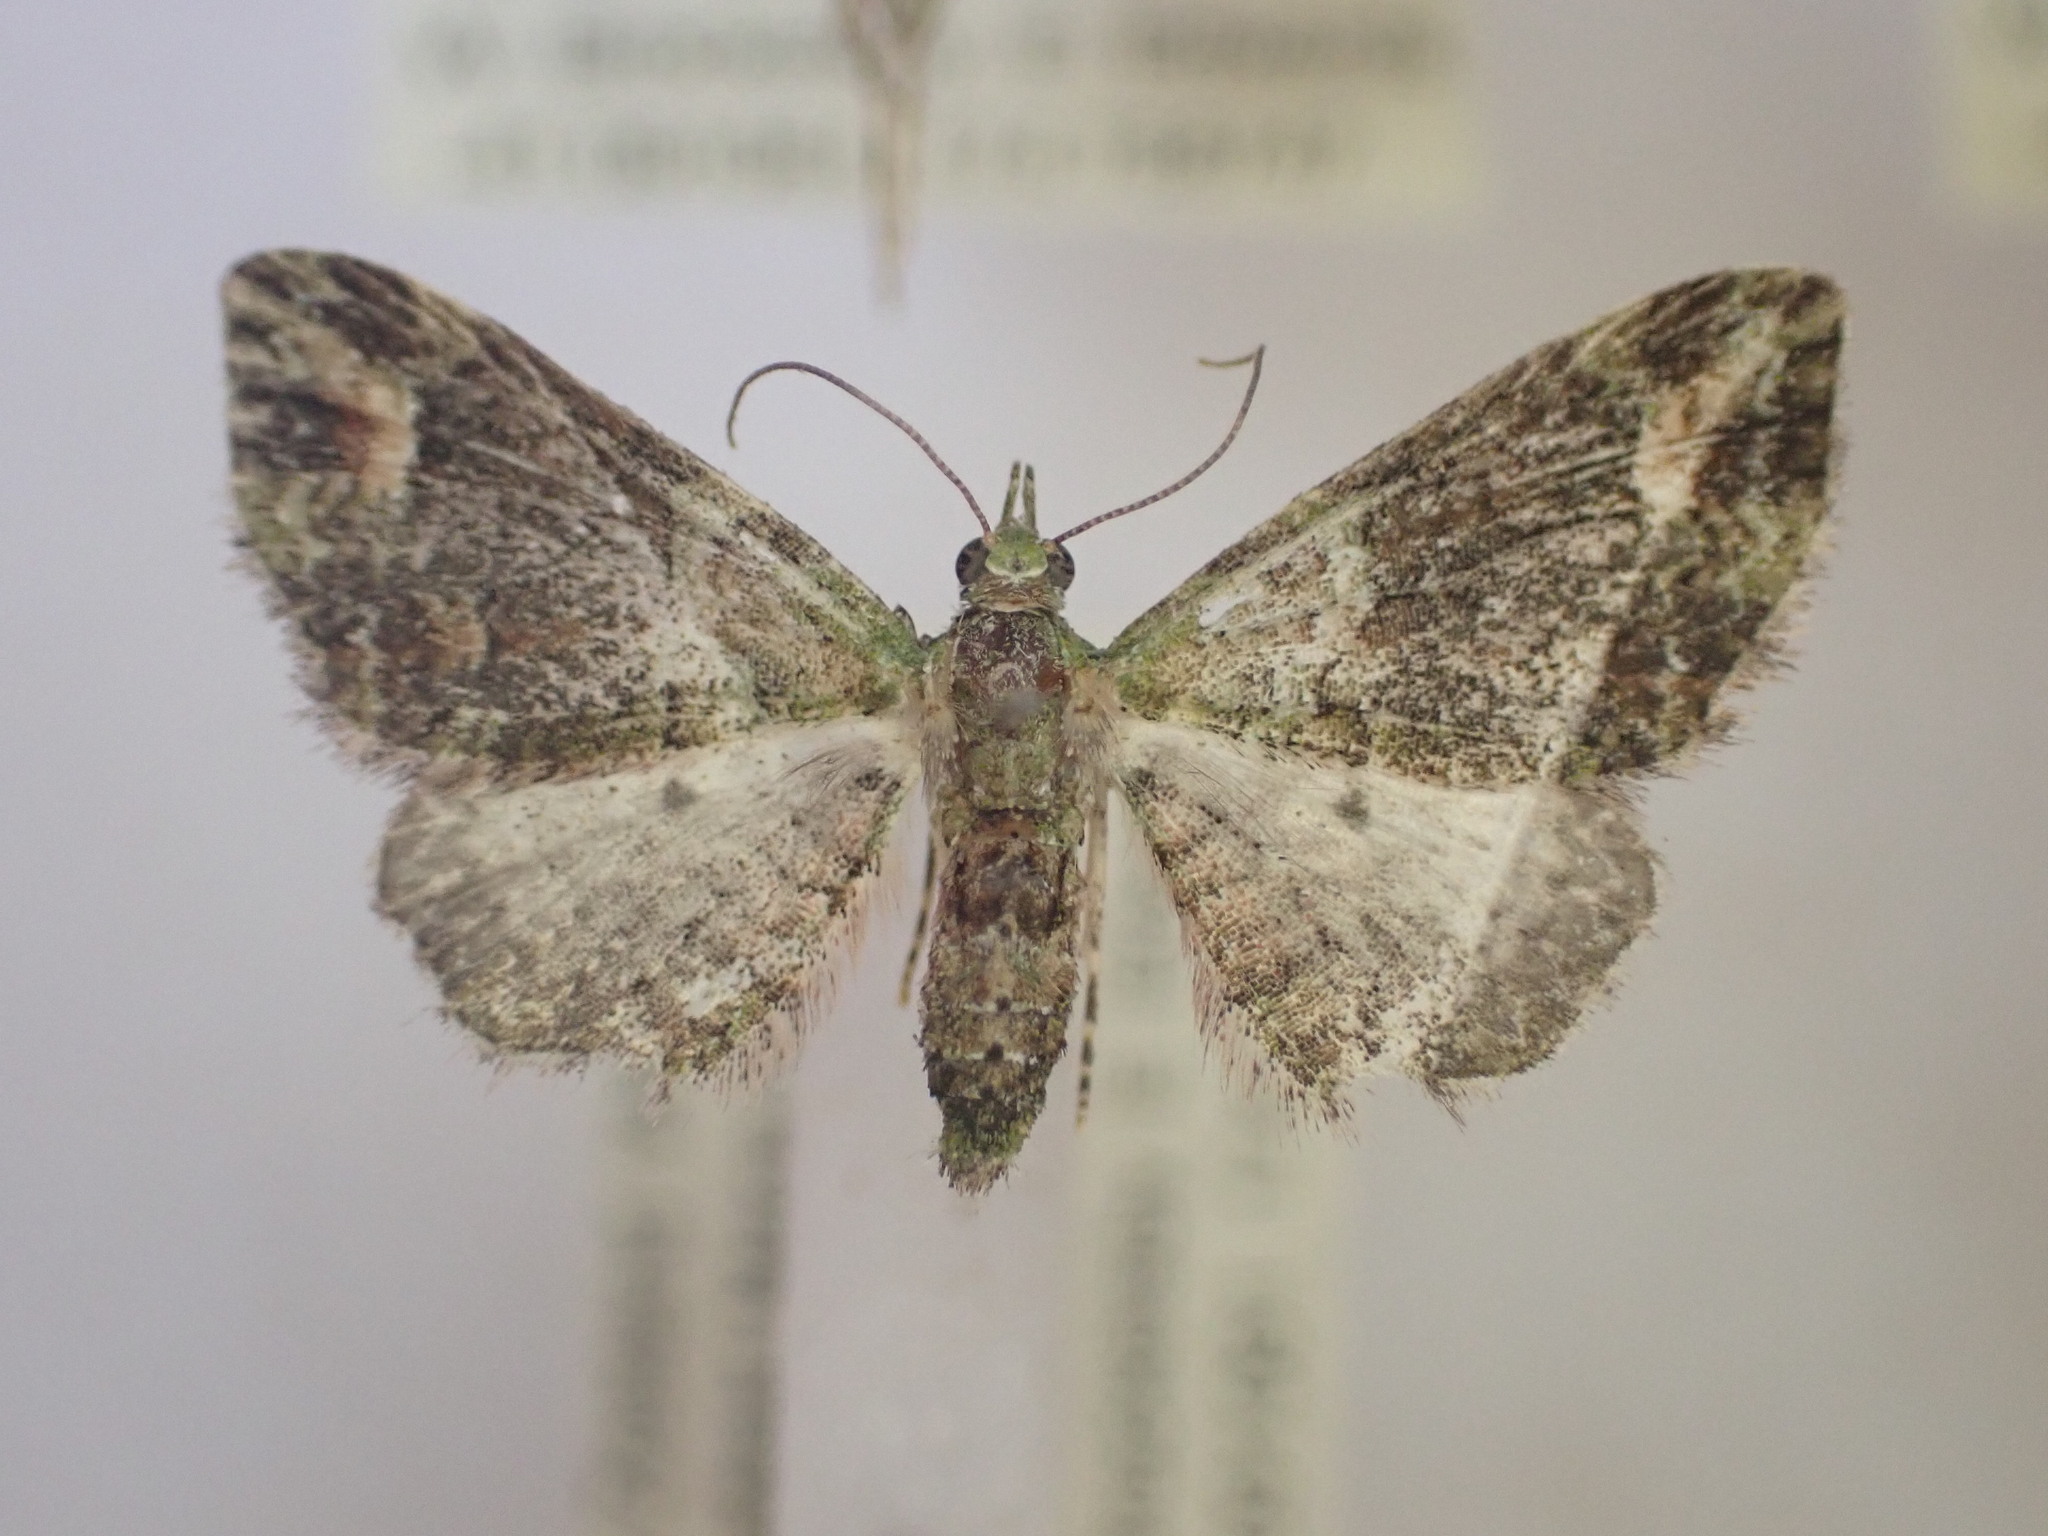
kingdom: Animalia
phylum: Arthropoda
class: Insecta
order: Lepidoptera
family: Geometridae
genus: Idaea
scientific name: Idaea mutanda
